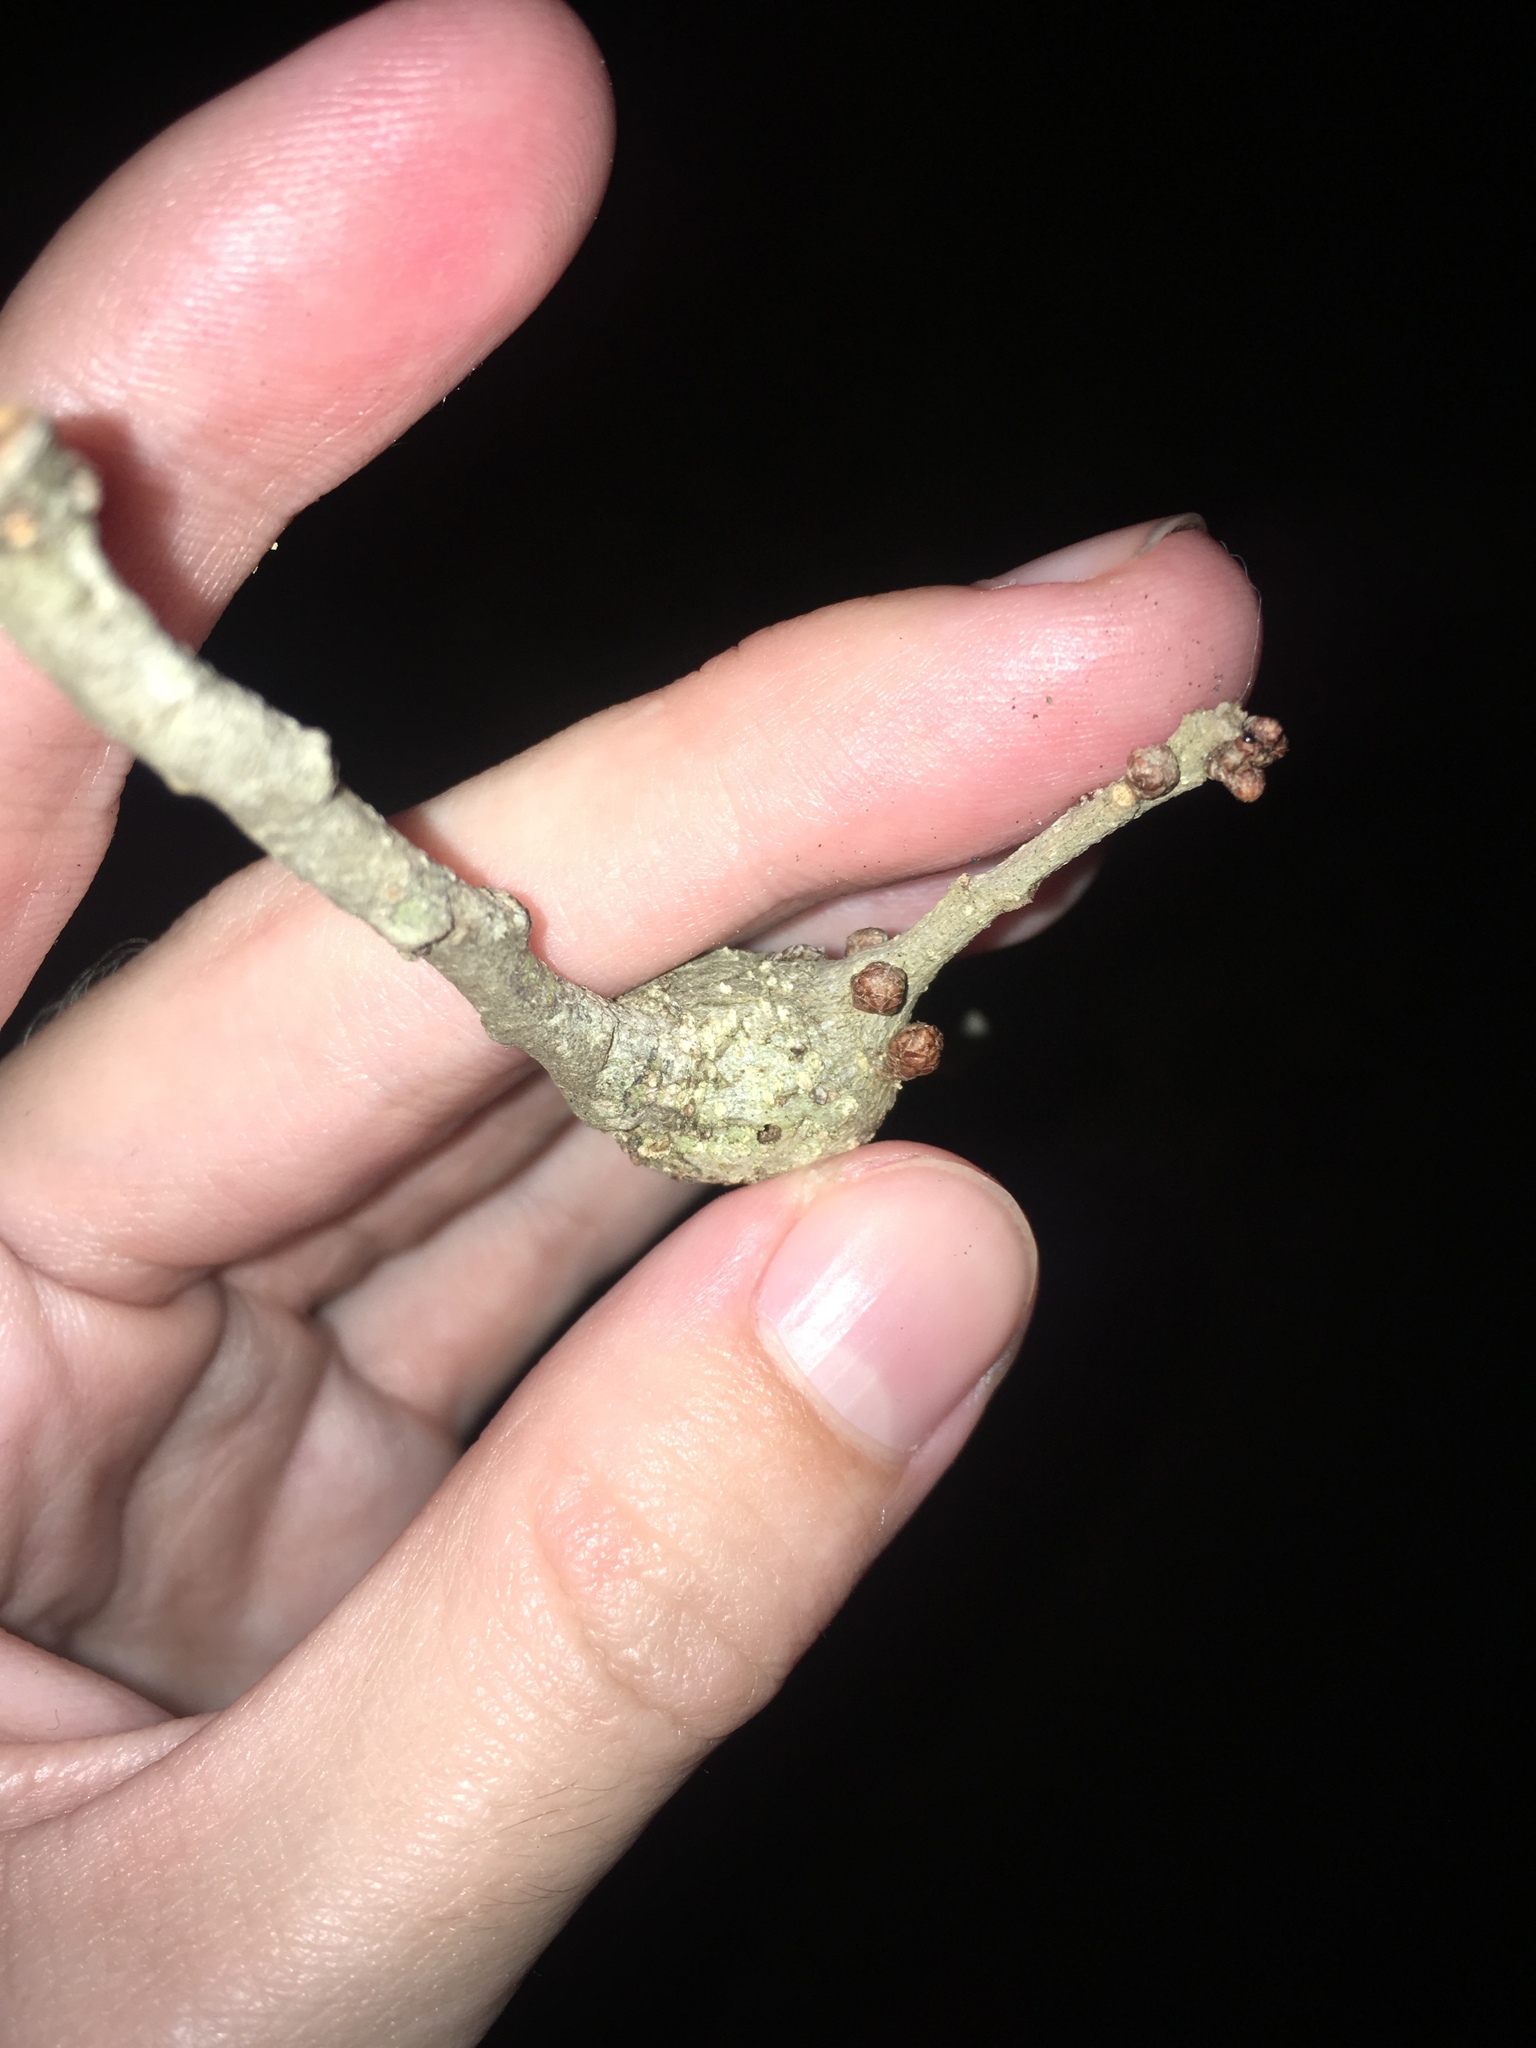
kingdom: Animalia
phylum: Arthropoda
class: Insecta
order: Hymenoptera
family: Cynipidae
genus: Callirhytis
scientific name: Callirhytis
